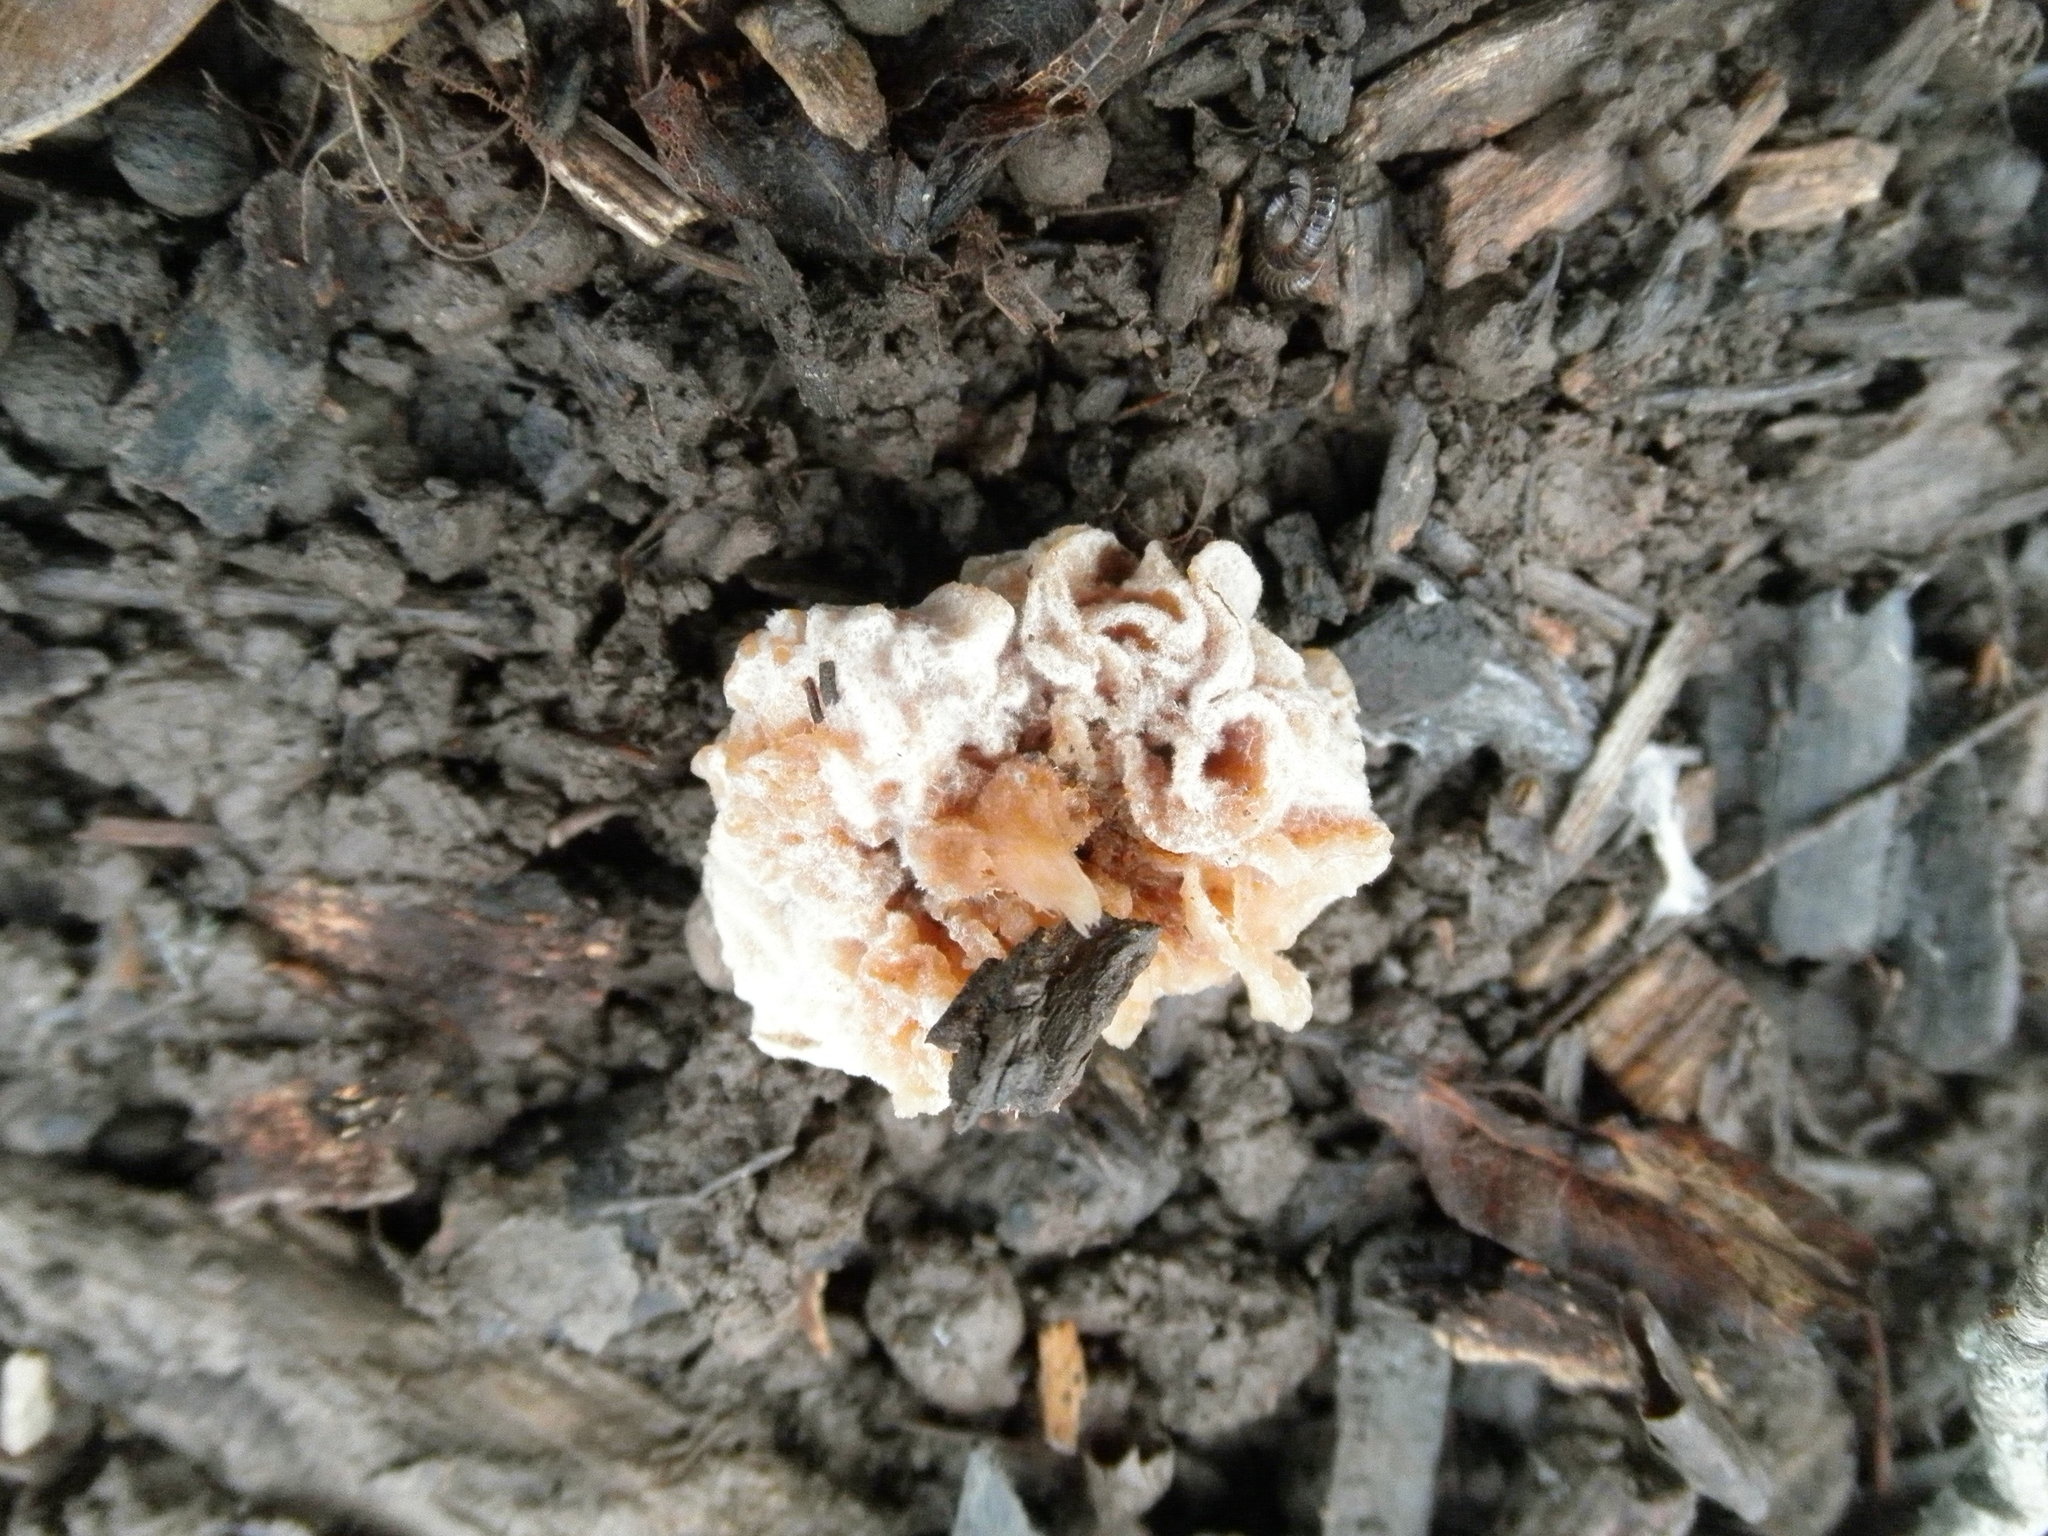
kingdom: Fungi
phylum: Ascomycota
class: Sordariomycetes
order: Hypocreales
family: Bionectriaceae
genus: Nectriopsis
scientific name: Nectriopsis tremellicola
